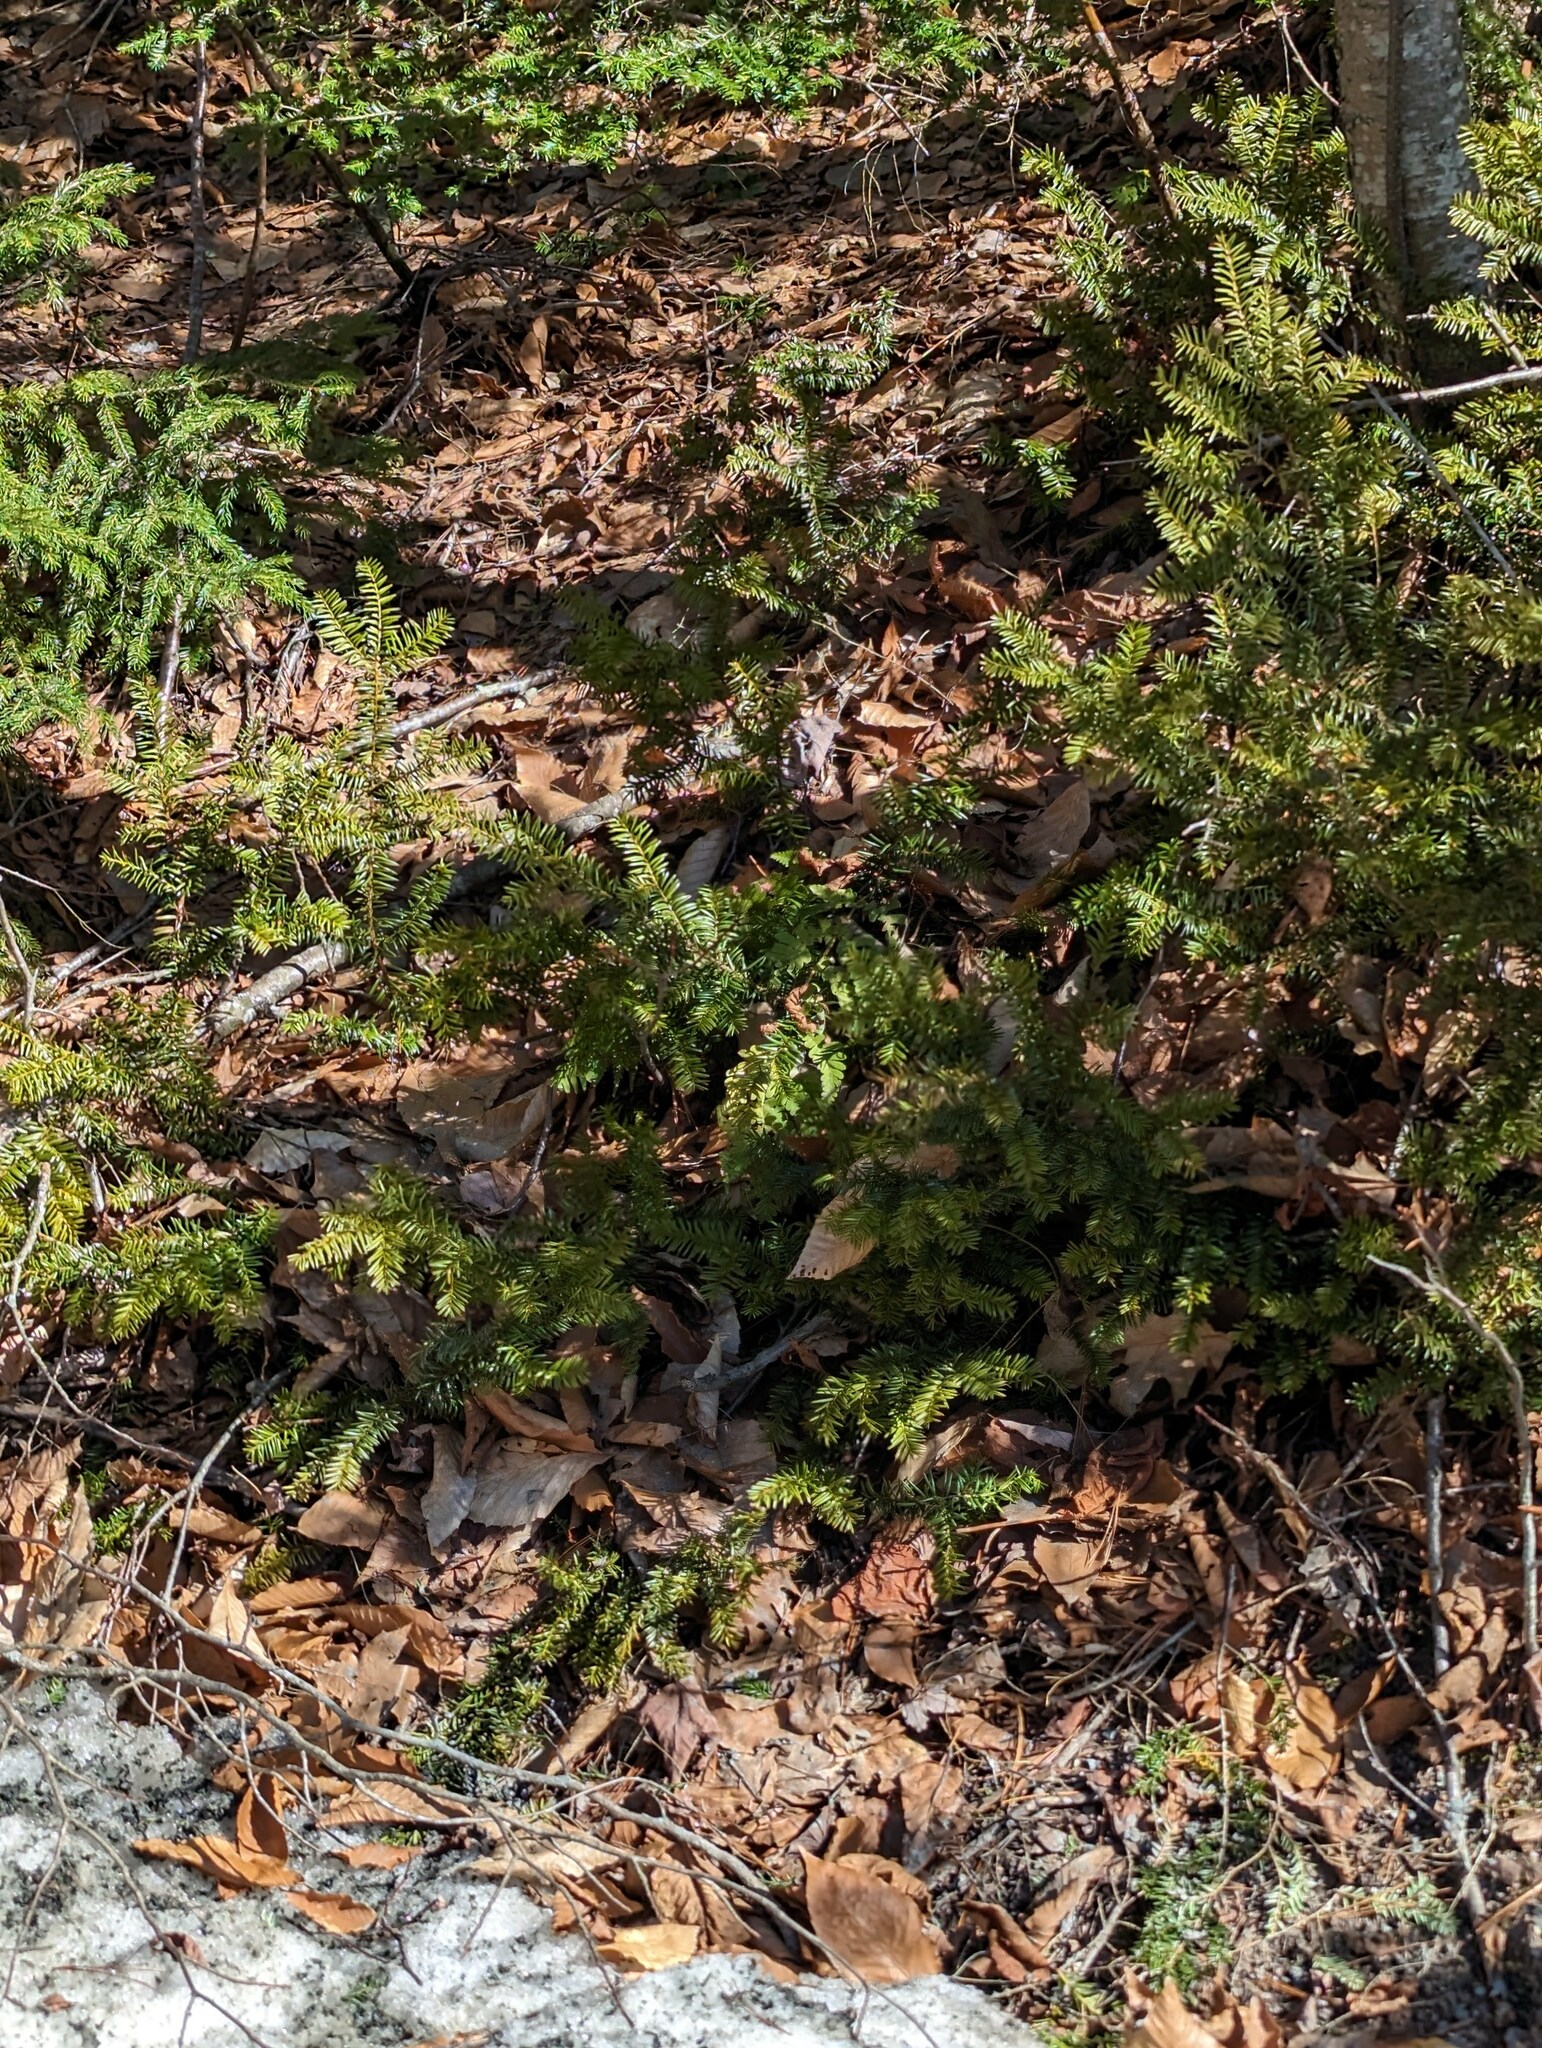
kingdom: Plantae
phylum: Tracheophyta
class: Pinopsida
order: Pinales
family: Taxaceae
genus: Taxus
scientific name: Taxus canadensis
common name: American yew
